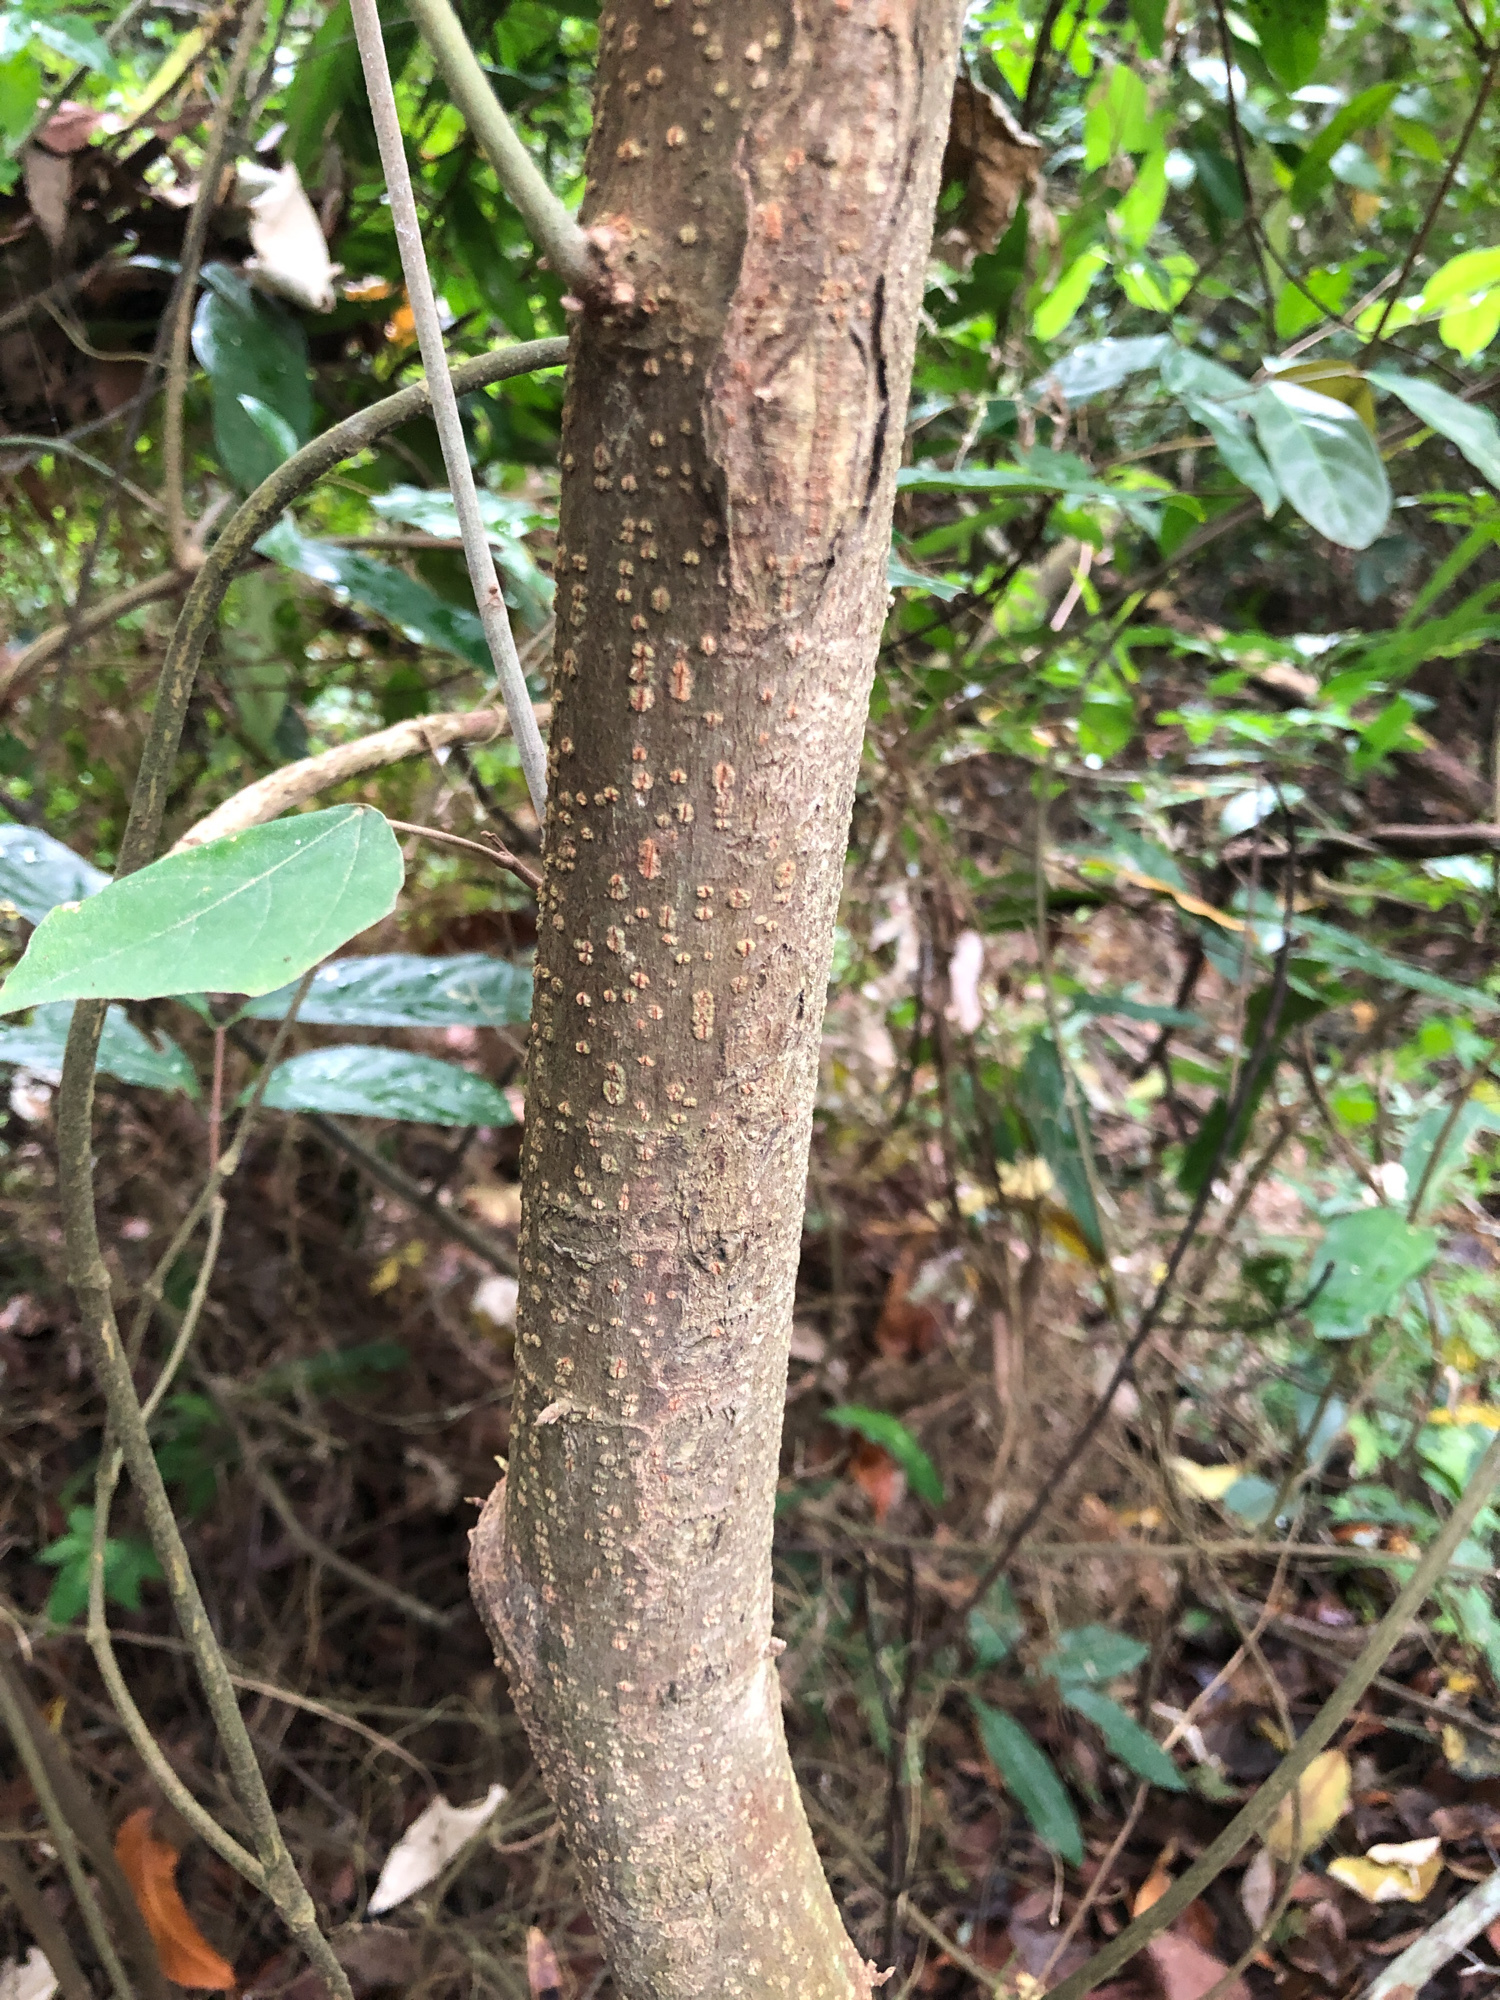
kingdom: Plantae
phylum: Tracheophyta
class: Magnoliopsida
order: Malpighiales
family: Euphorbiaceae
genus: Mallotus
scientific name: Mallotus paniculatus
